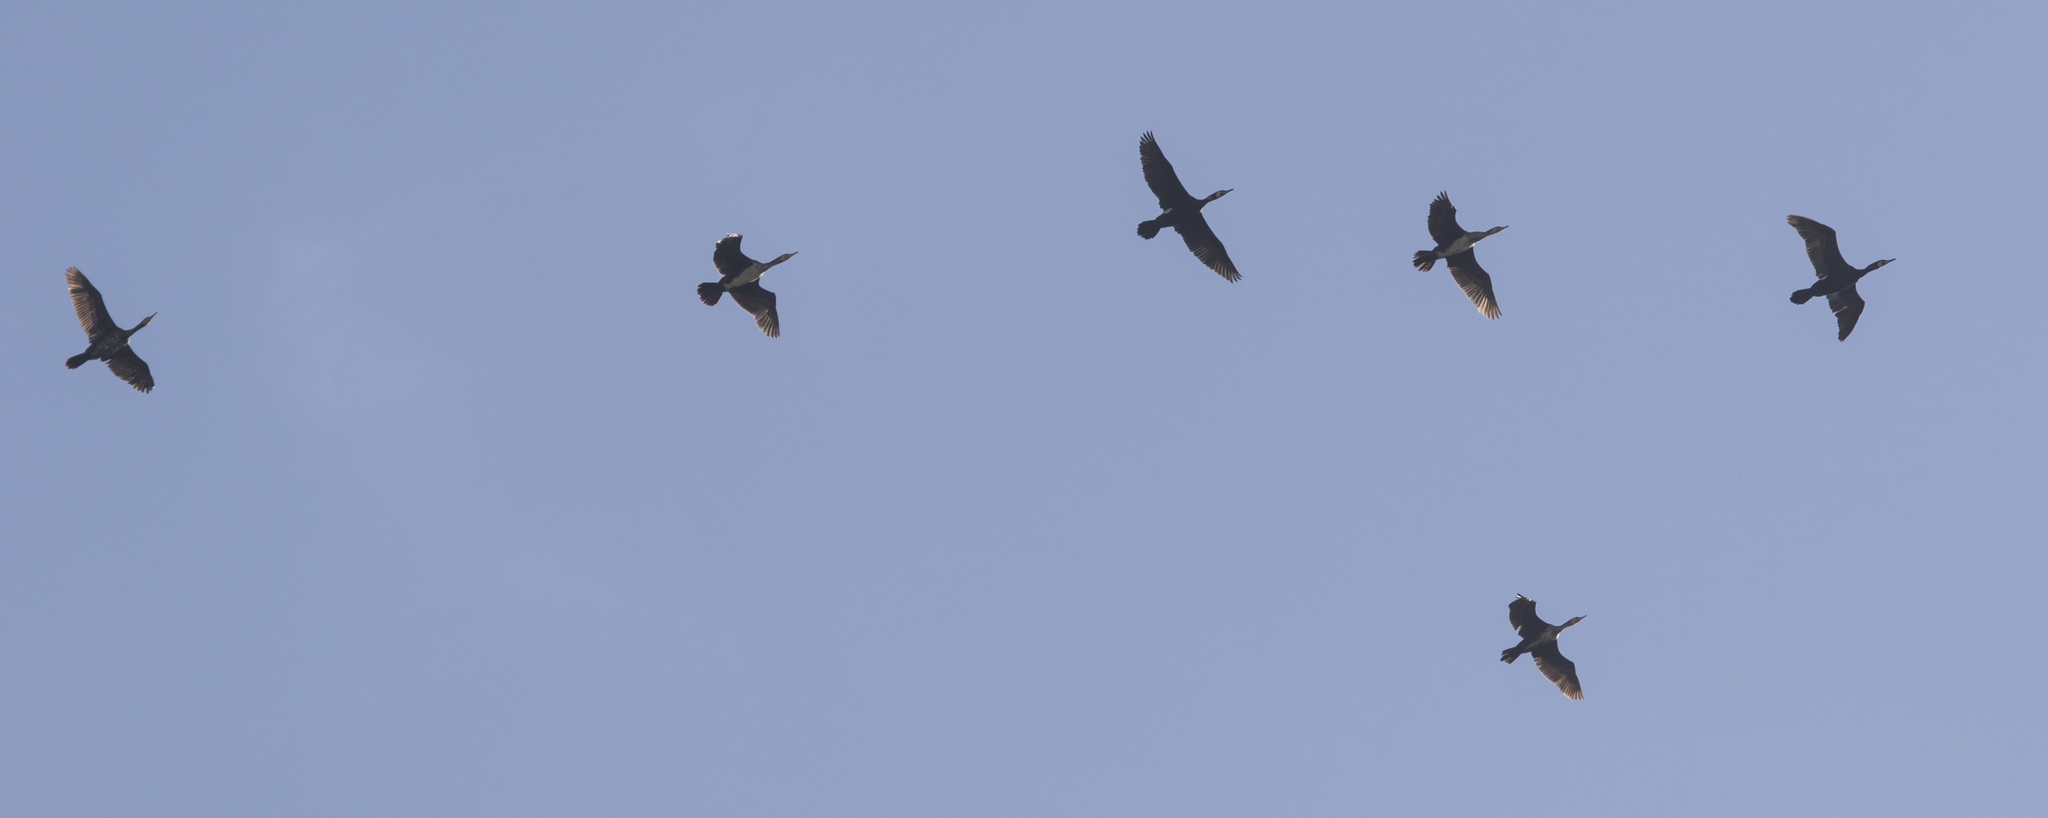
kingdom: Animalia
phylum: Chordata
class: Aves
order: Suliformes
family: Phalacrocoracidae
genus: Phalacrocorax
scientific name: Phalacrocorax carbo
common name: Great cormorant
